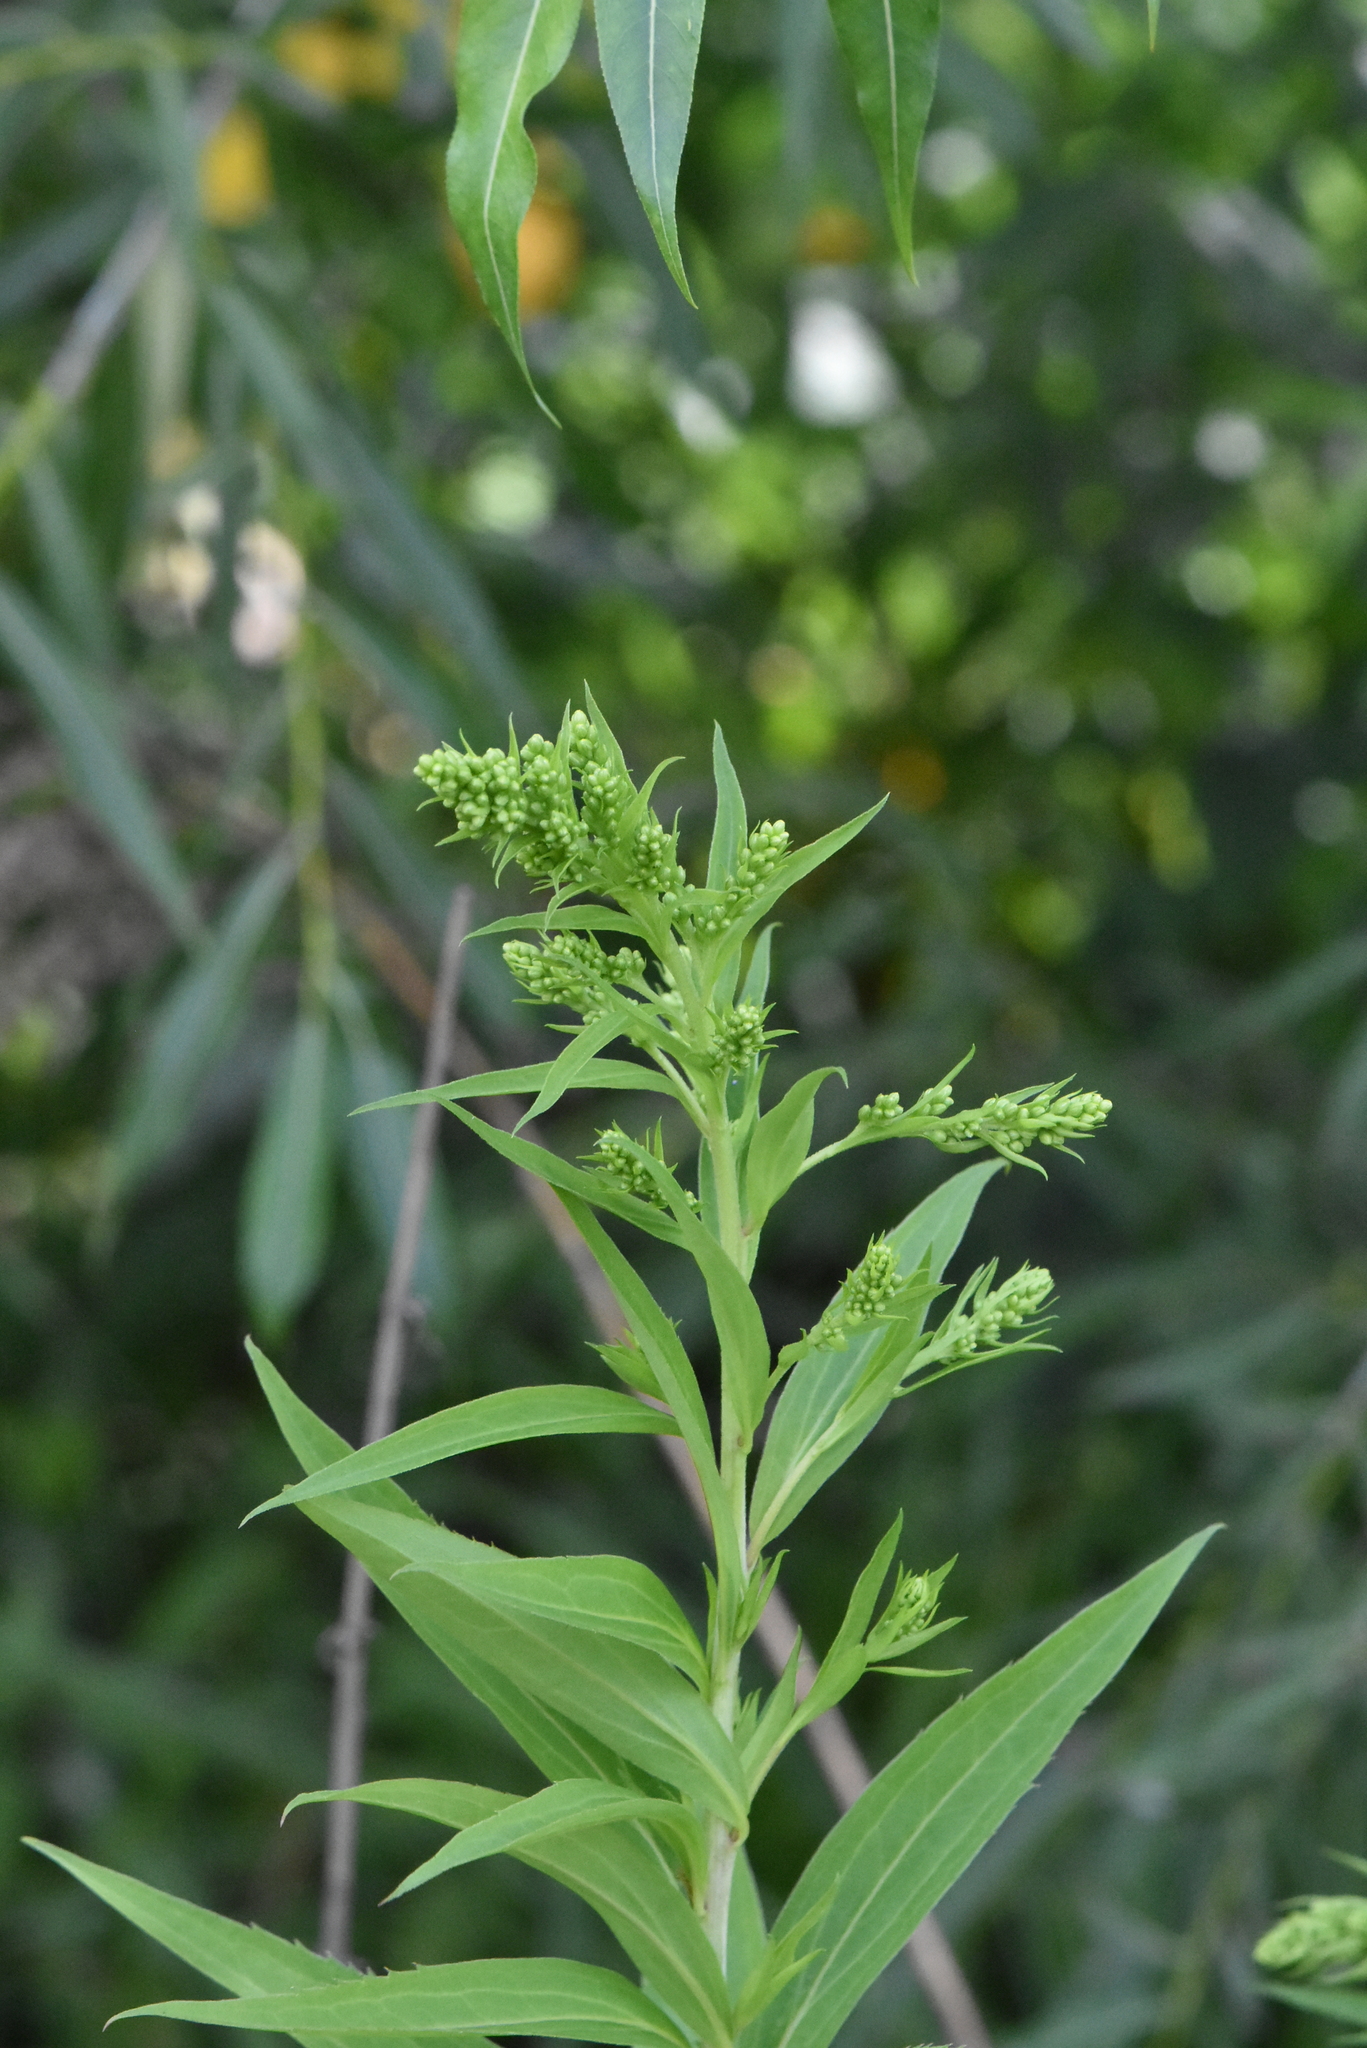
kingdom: Plantae
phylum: Tracheophyta
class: Magnoliopsida
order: Asterales
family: Asteraceae
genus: Solidago
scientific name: Solidago gigantea
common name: Giant goldenrod
